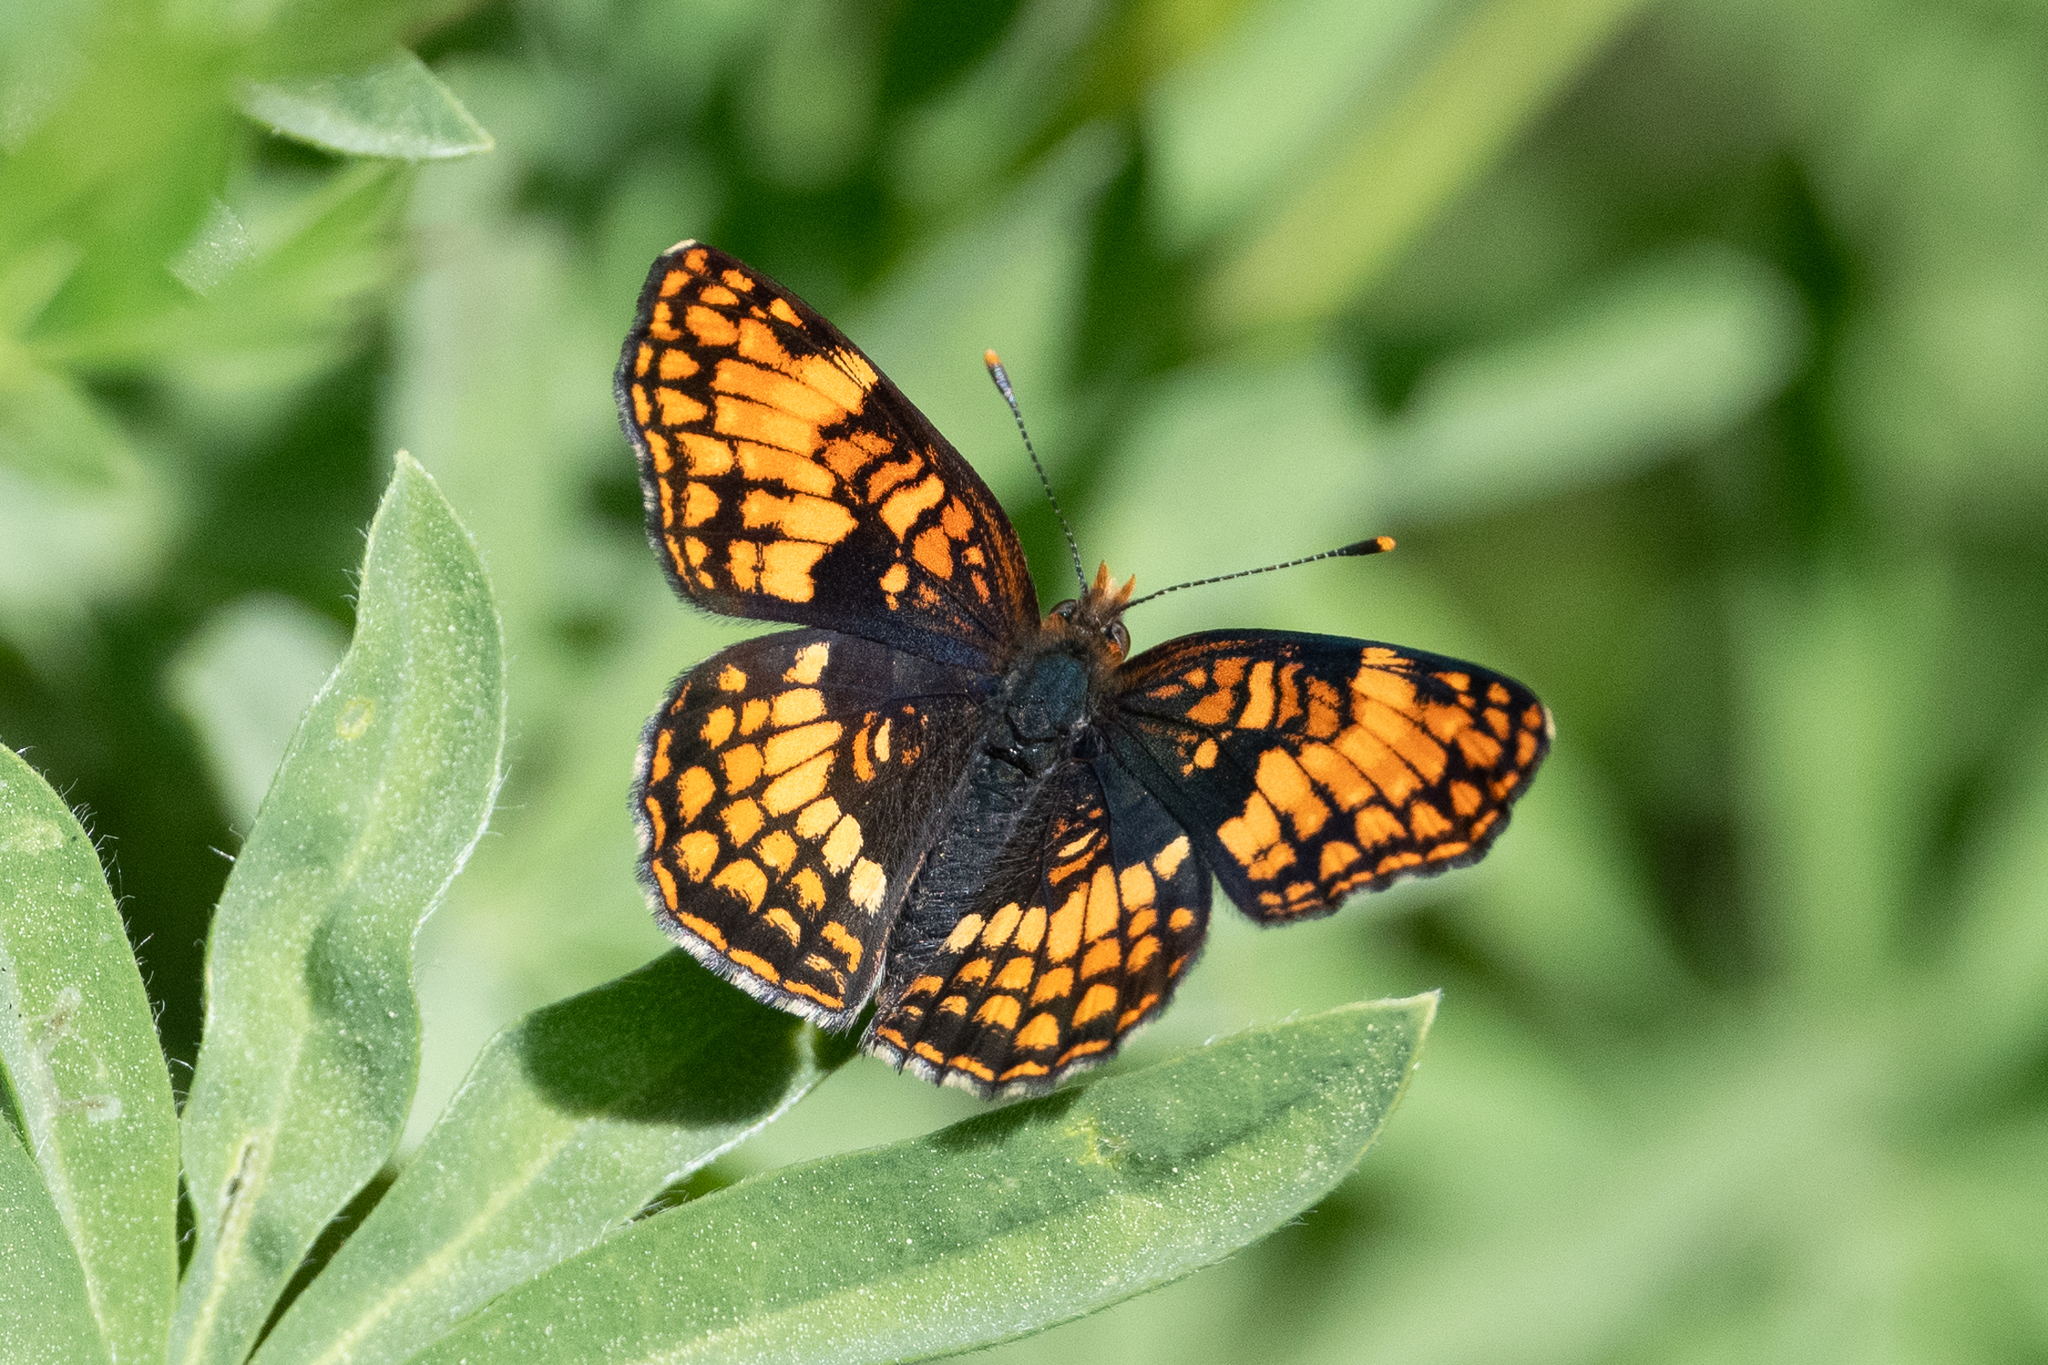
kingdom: Animalia
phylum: Arthropoda
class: Insecta
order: Lepidoptera
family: Nymphalidae
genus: Chlosyne
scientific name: Chlosyne hoffmanni
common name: Hoffmann's checkerspot
